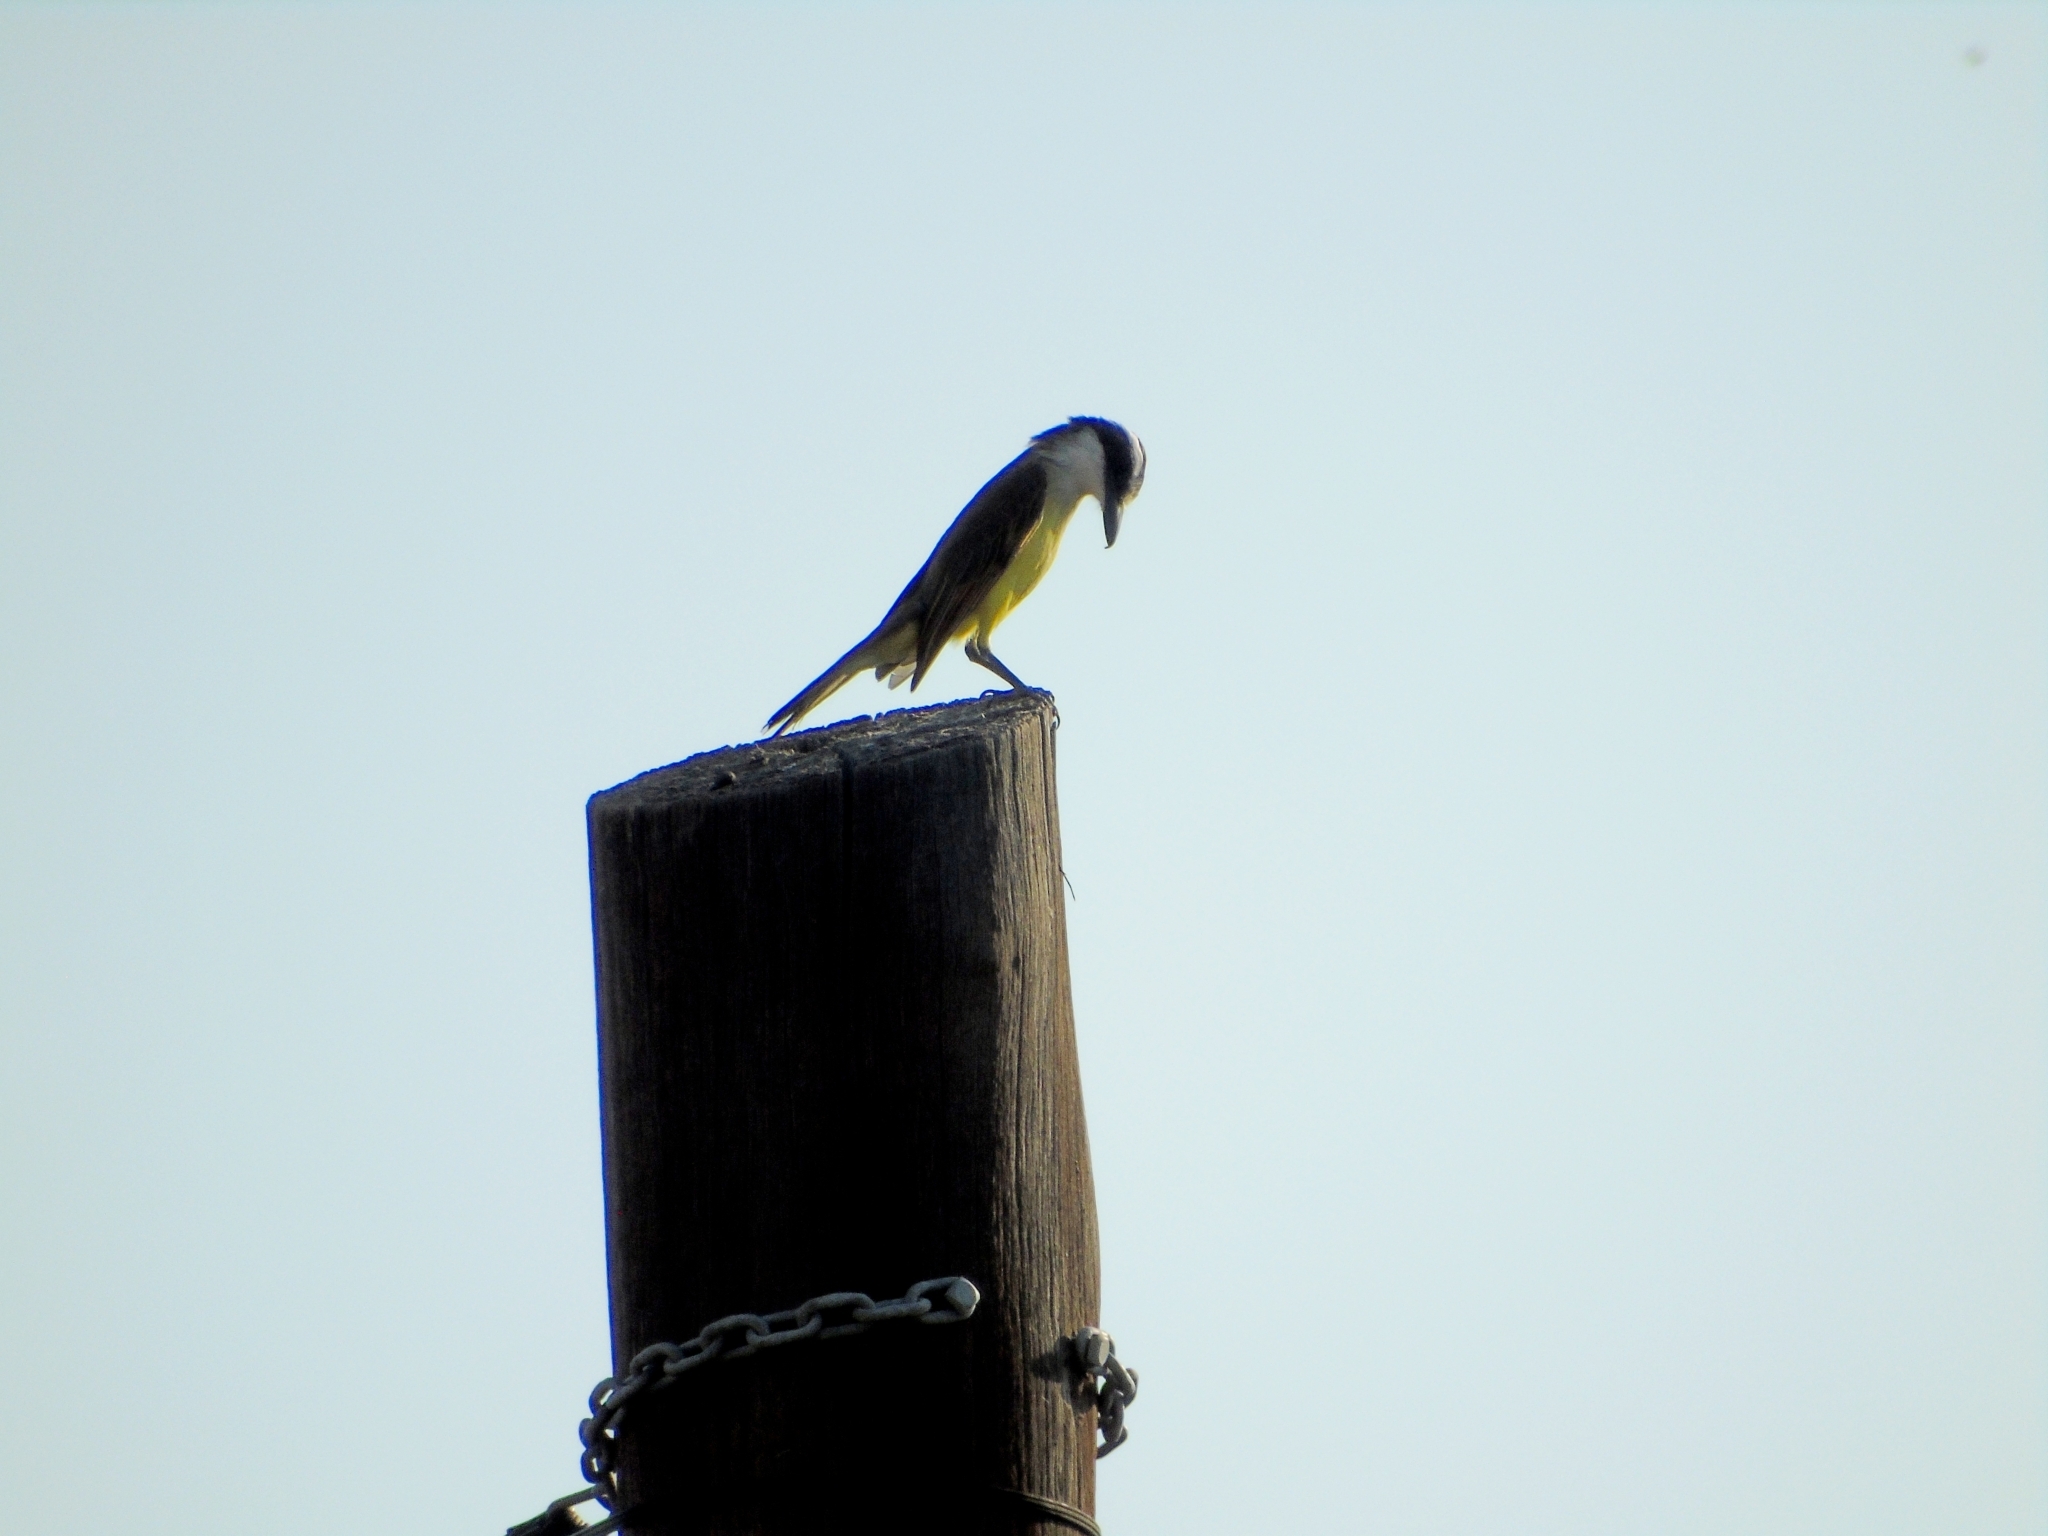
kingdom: Animalia
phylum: Chordata
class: Aves
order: Passeriformes
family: Tyrannidae
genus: Pitangus
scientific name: Pitangus sulphuratus
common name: Great kiskadee
